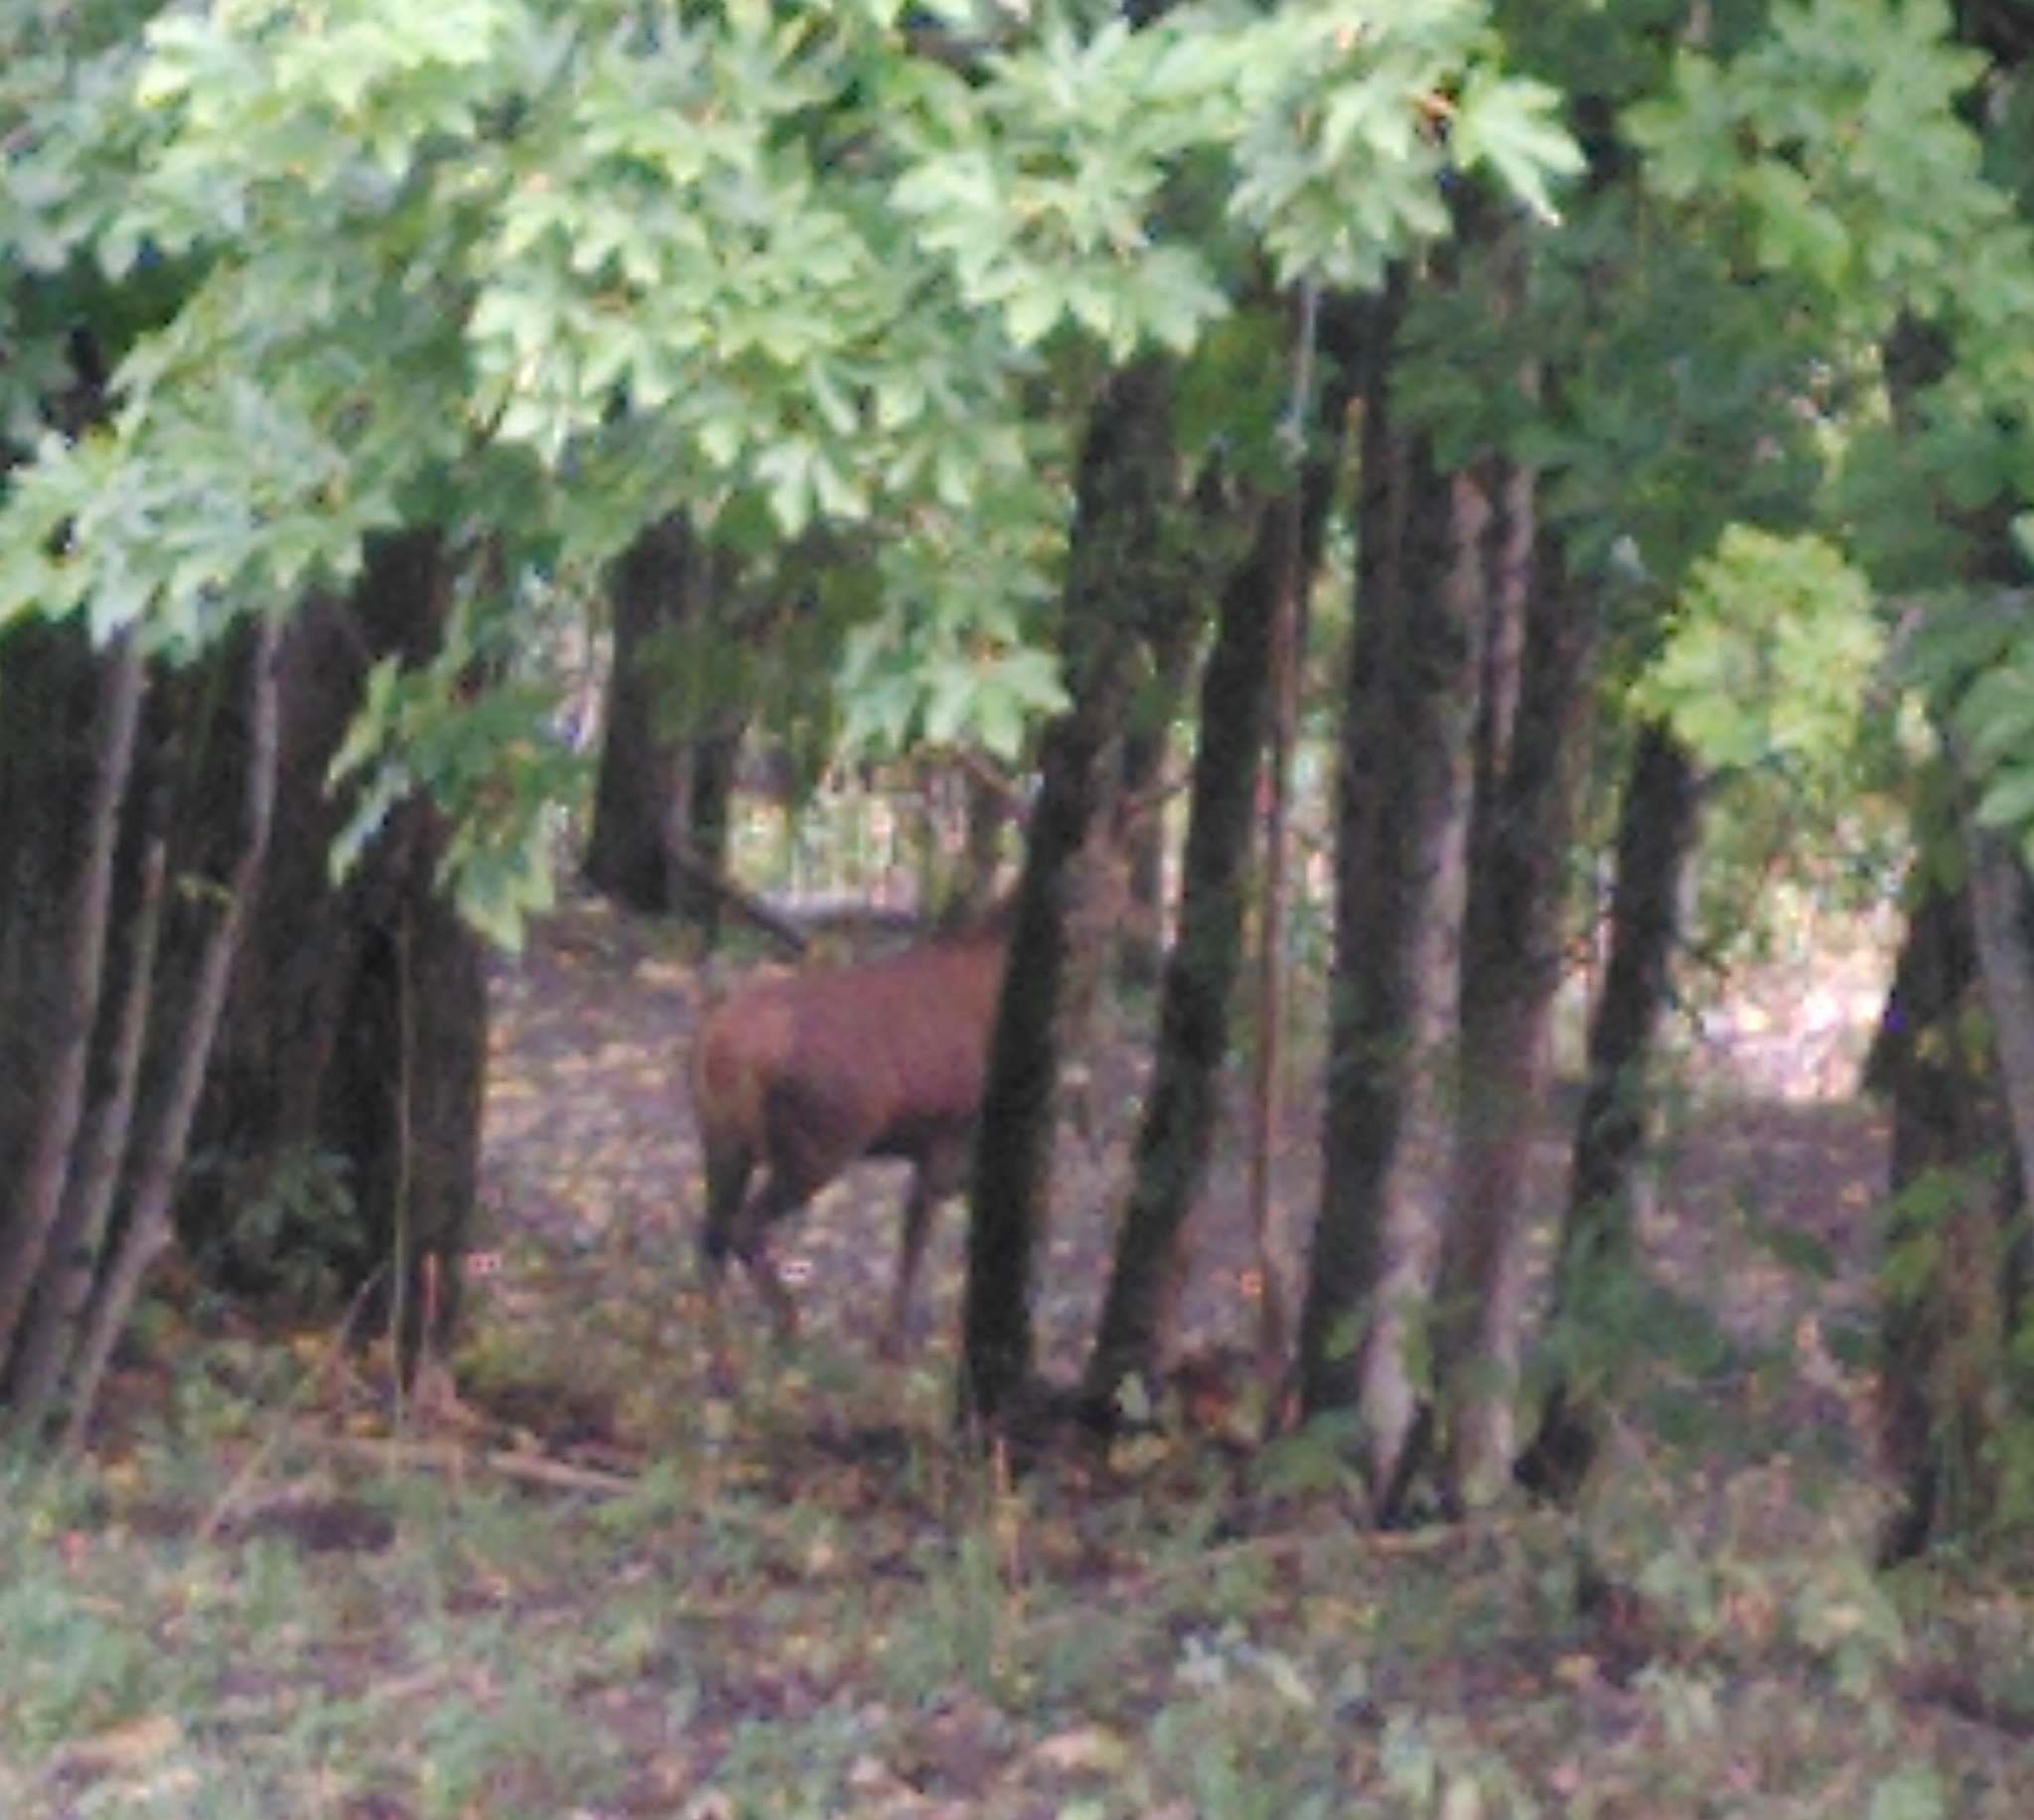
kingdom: Animalia
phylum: Chordata
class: Mammalia
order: Artiodactyla
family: Cervidae
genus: Cervus
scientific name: Cervus elaphus
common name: Red deer
